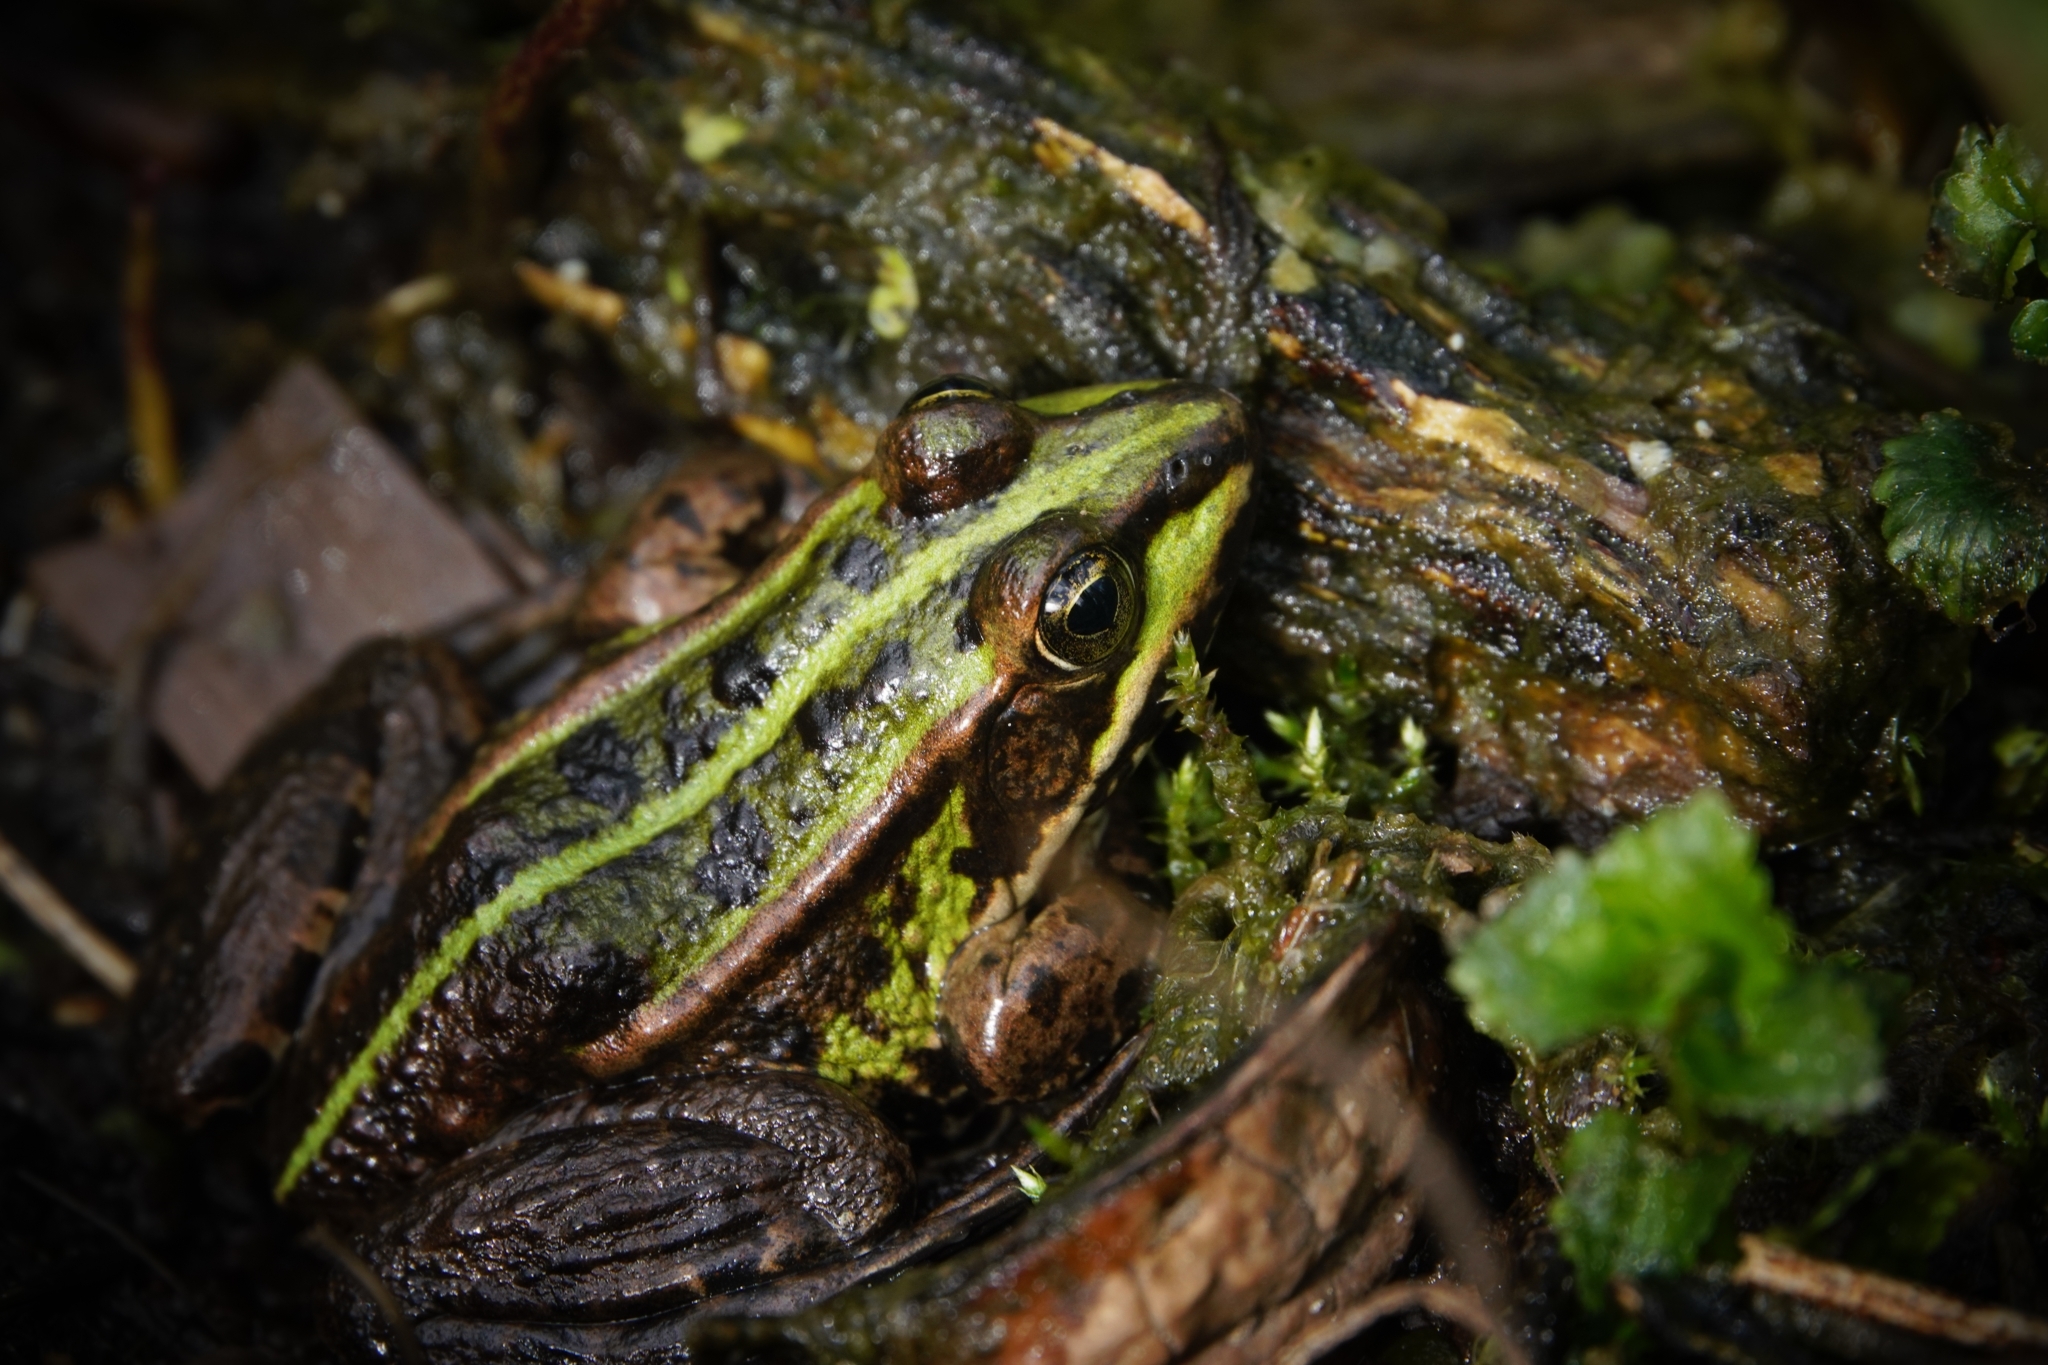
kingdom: Animalia
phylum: Chordata
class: Amphibia
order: Anura
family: Ranidae
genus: Pelophylax
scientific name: Pelophylax lessonae
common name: Pool frog
